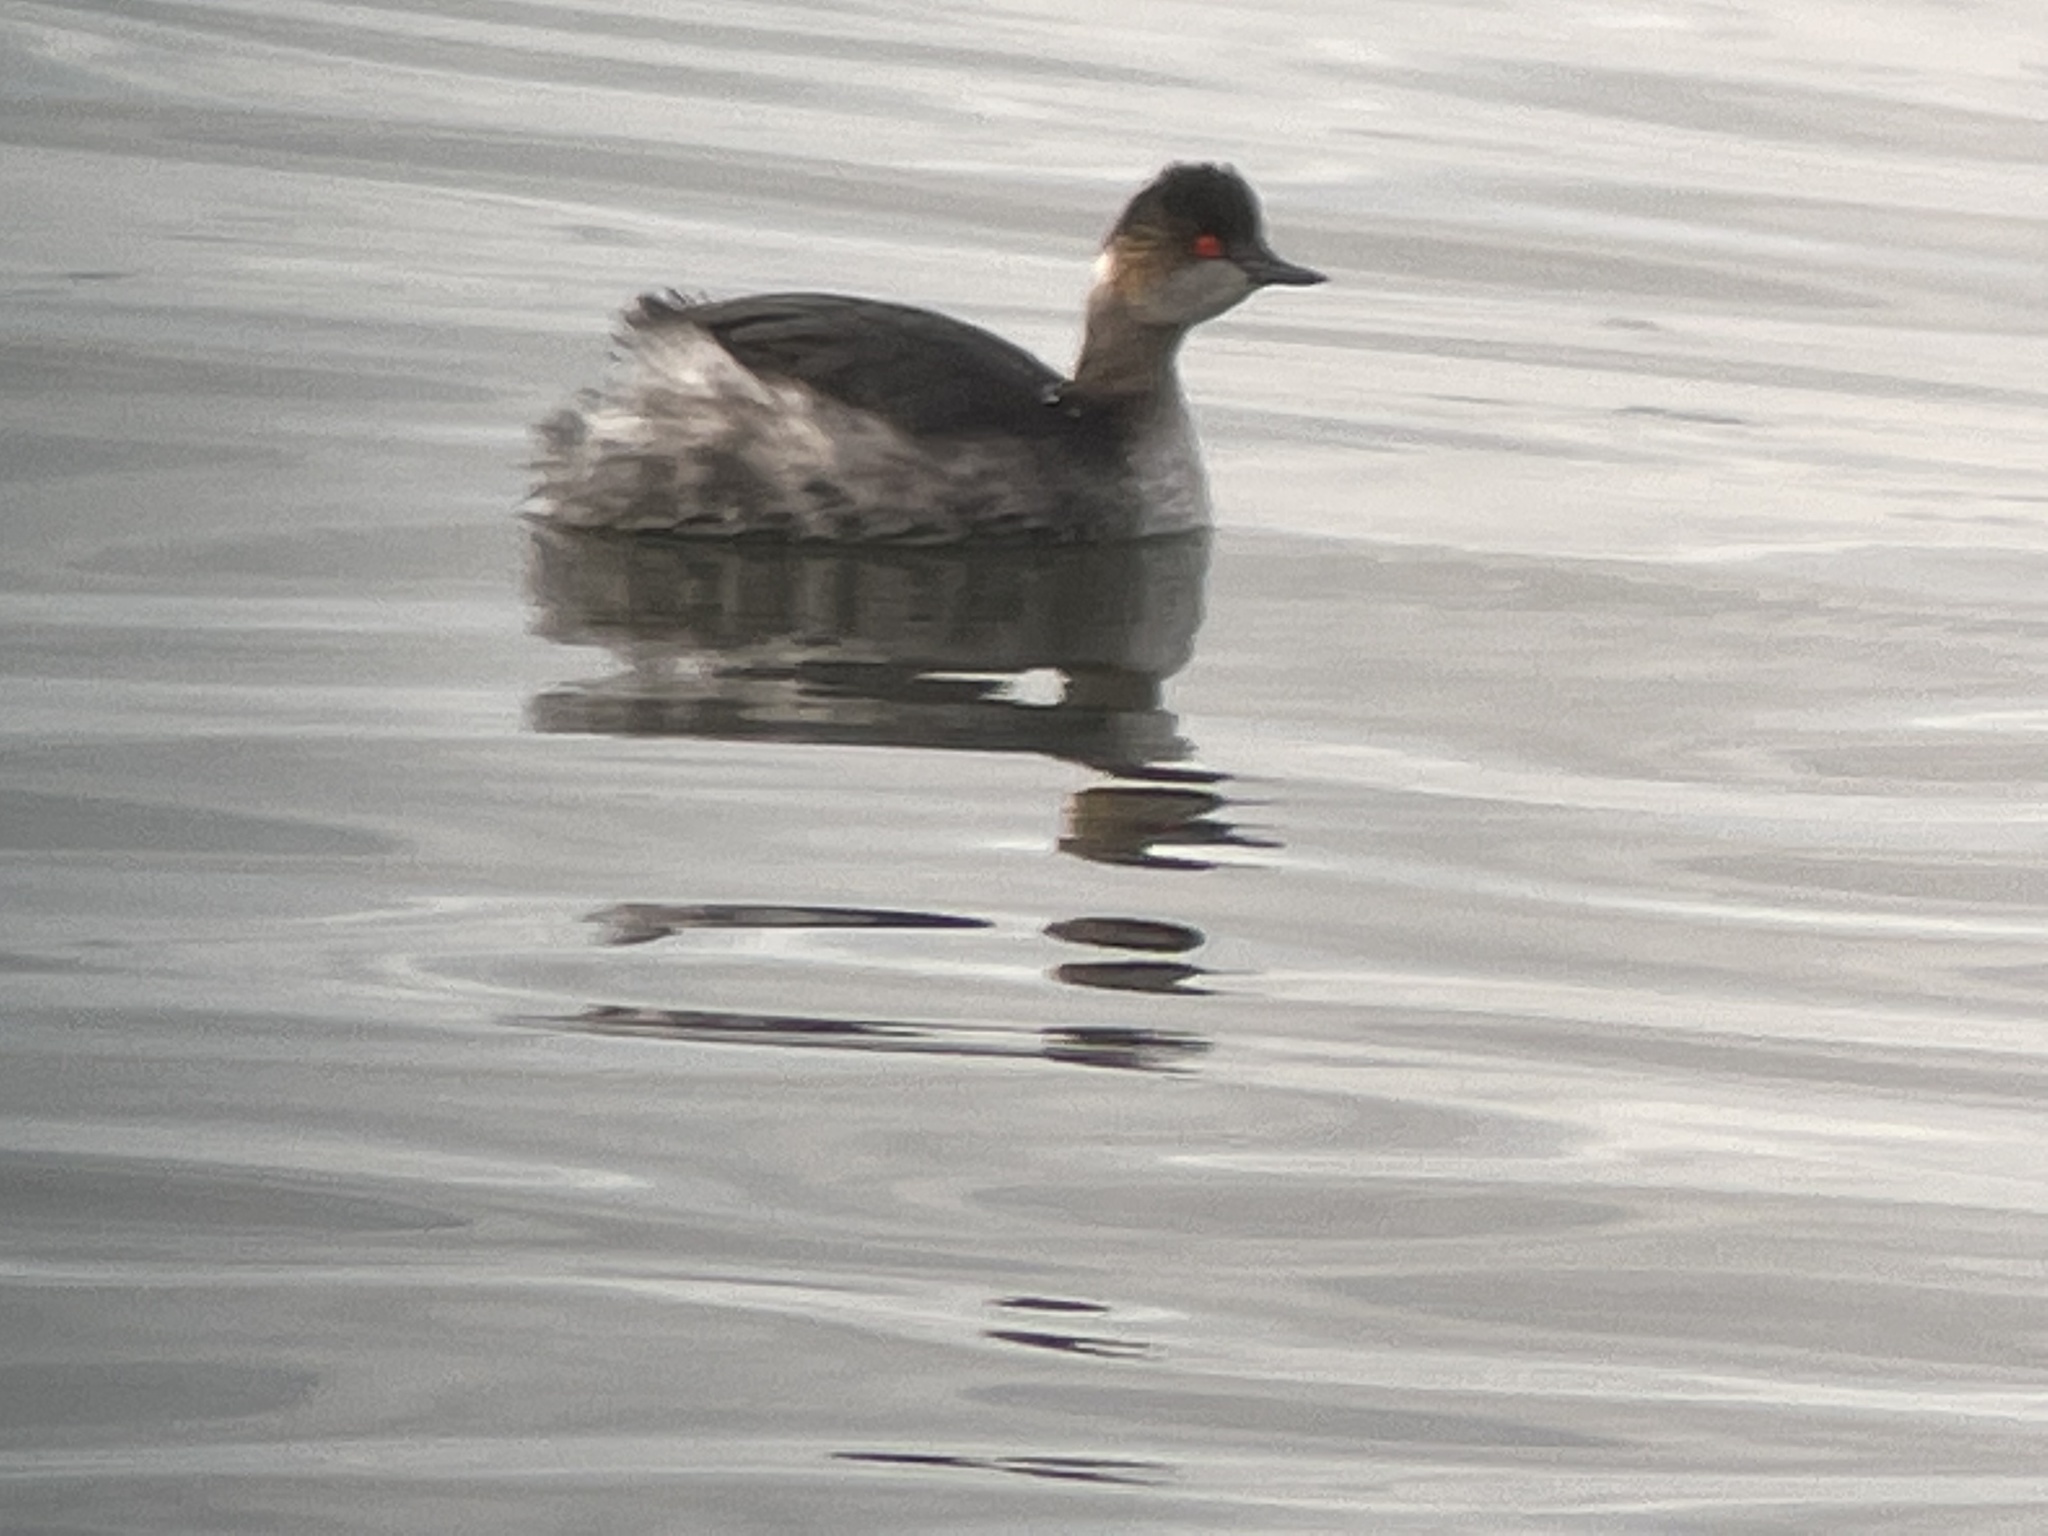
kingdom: Animalia
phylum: Chordata
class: Aves
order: Podicipediformes
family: Podicipedidae
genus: Podiceps
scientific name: Podiceps nigricollis
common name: Black-necked grebe
